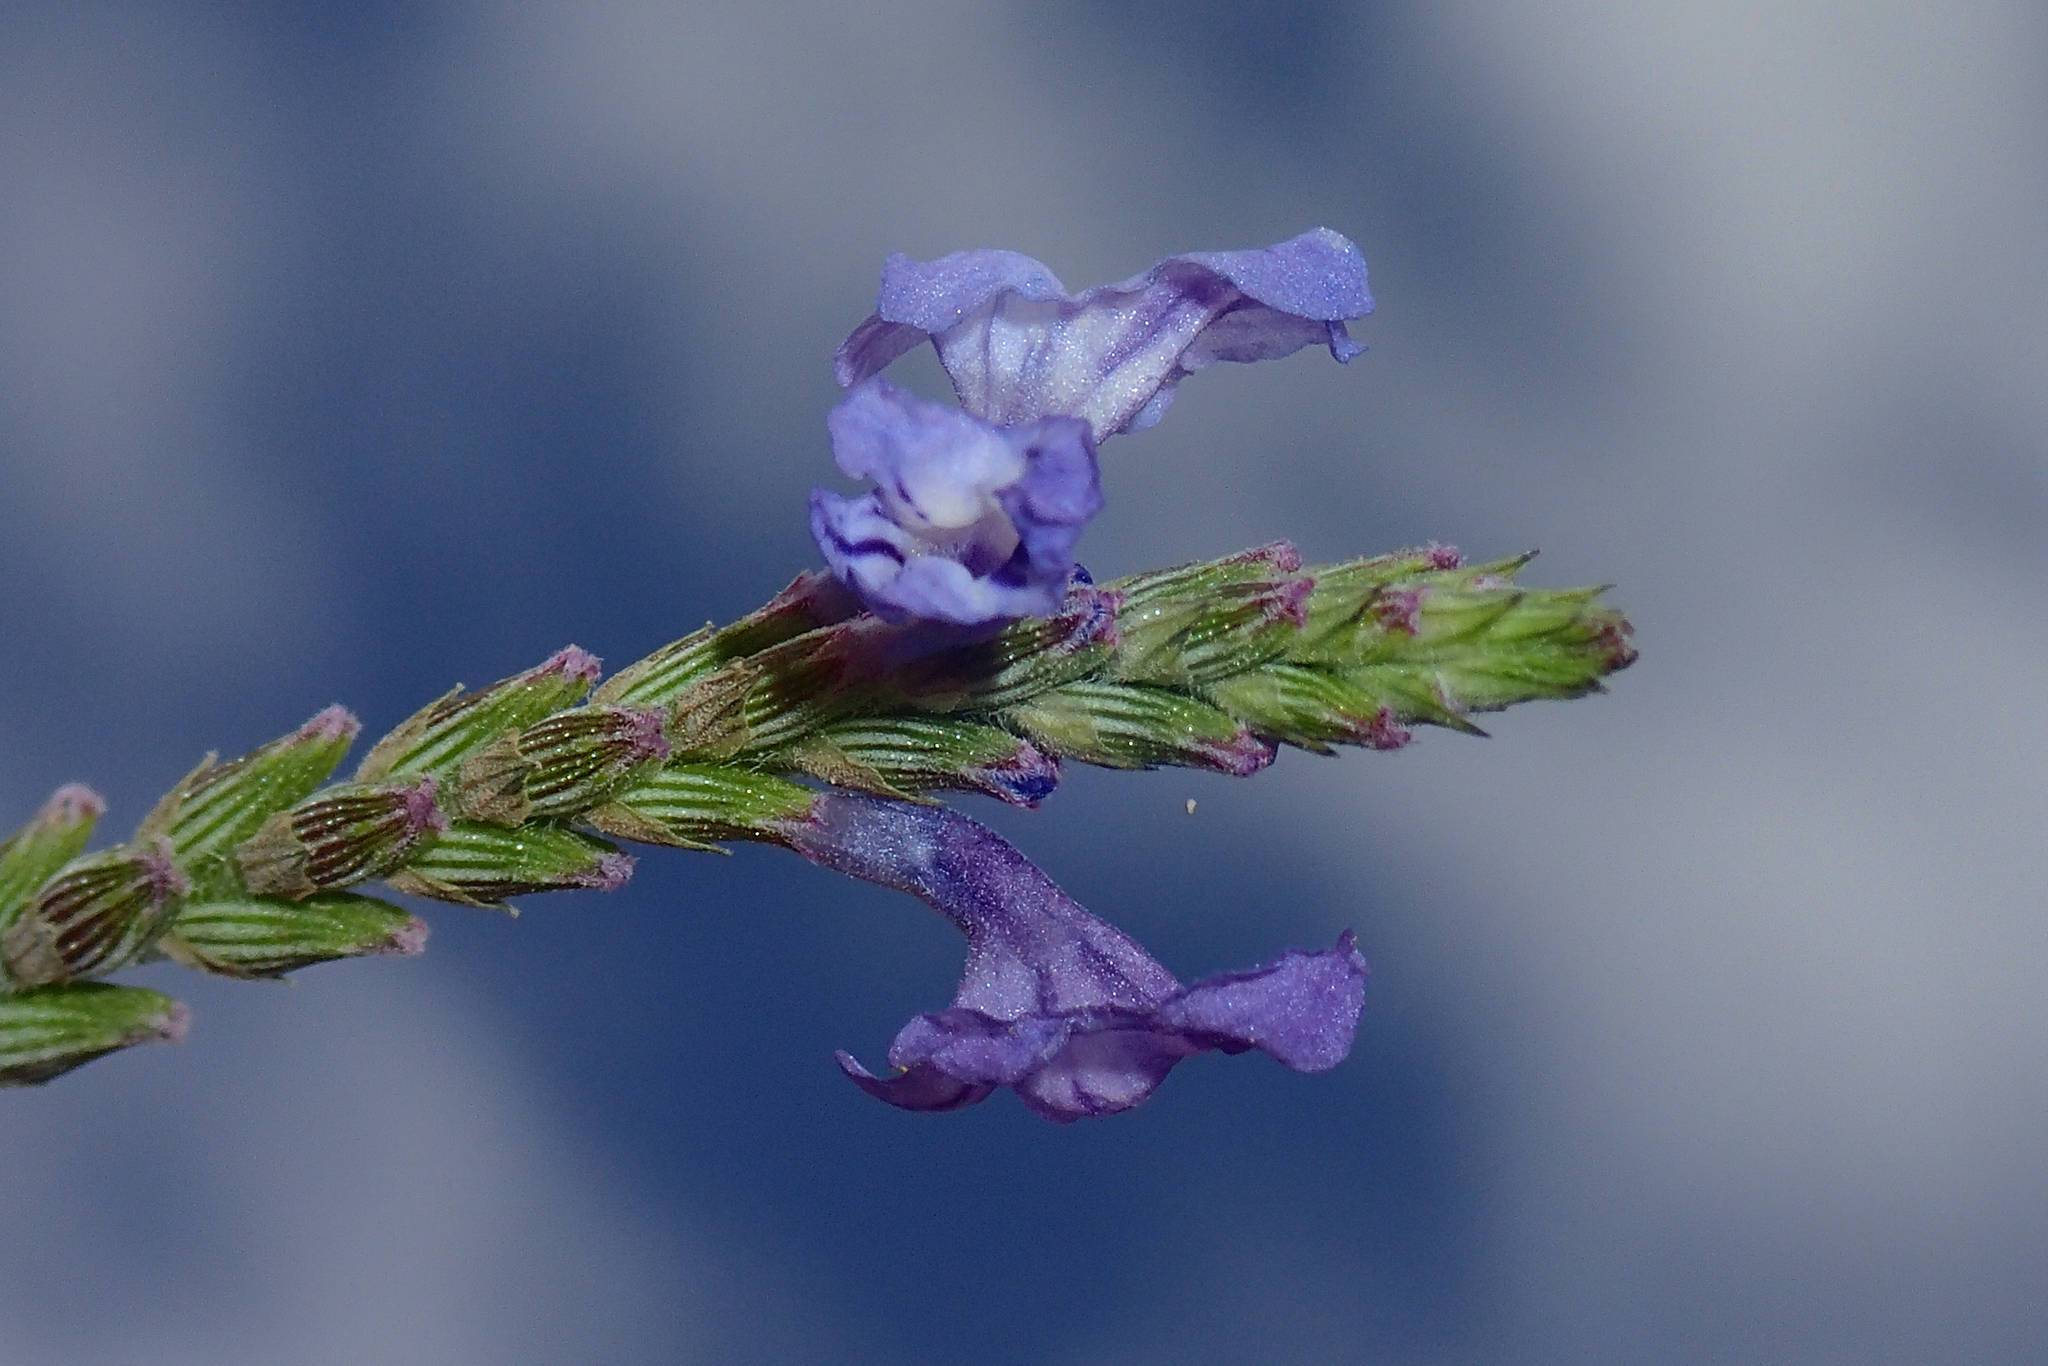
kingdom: Plantae
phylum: Tracheophyta
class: Magnoliopsida
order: Lamiales
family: Lamiaceae
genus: Lavandula
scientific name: Lavandula tenuisecta
